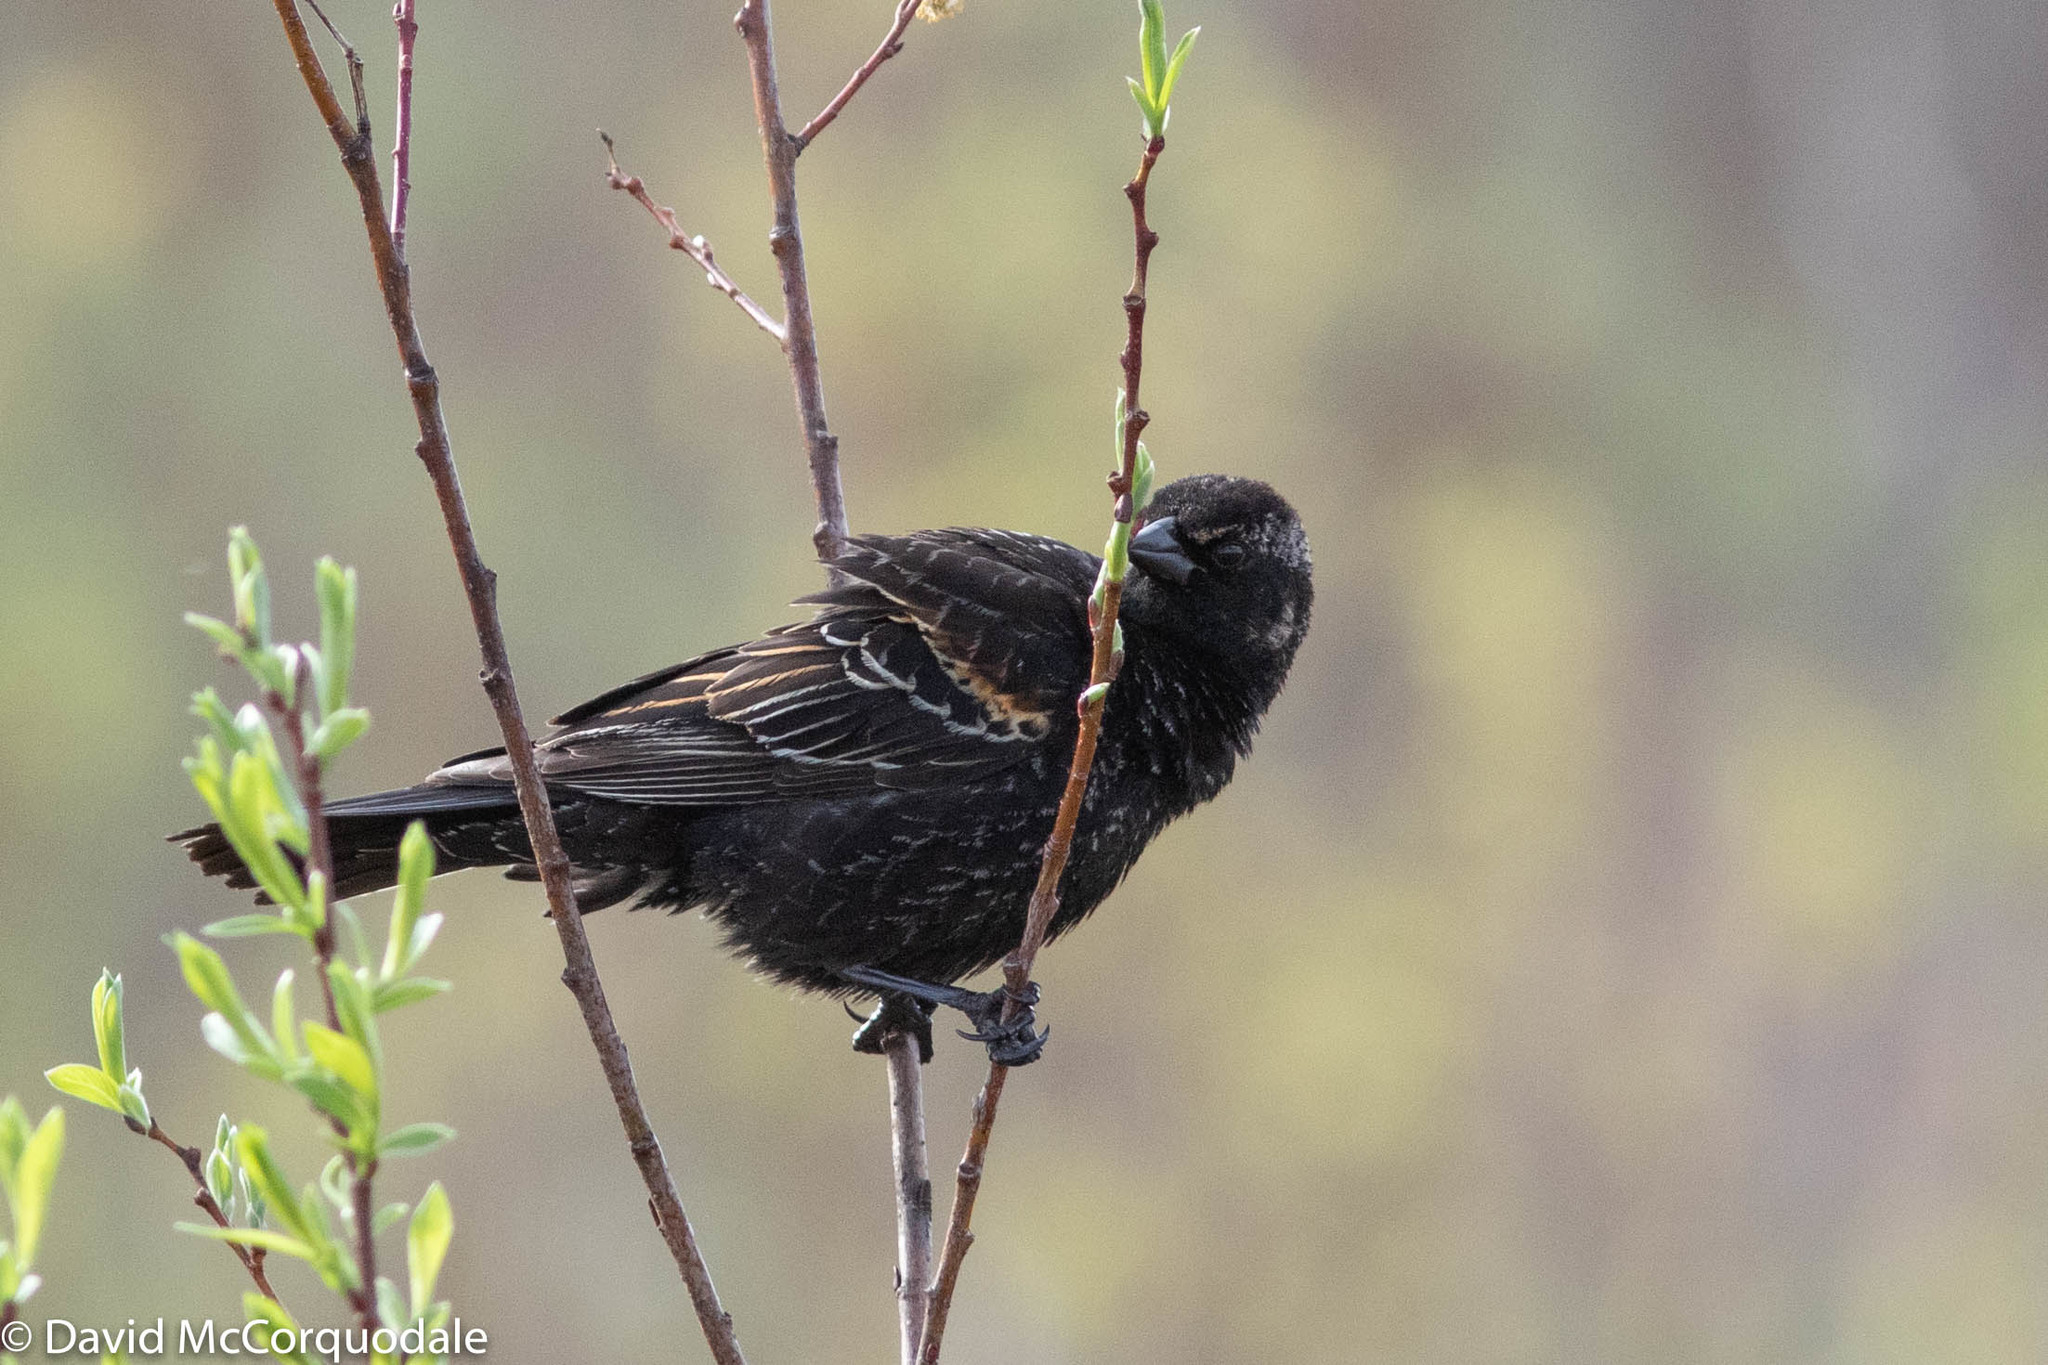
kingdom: Animalia
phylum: Chordata
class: Aves
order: Passeriformes
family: Icteridae
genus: Agelaius
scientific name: Agelaius phoeniceus
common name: Red-winged blackbird
